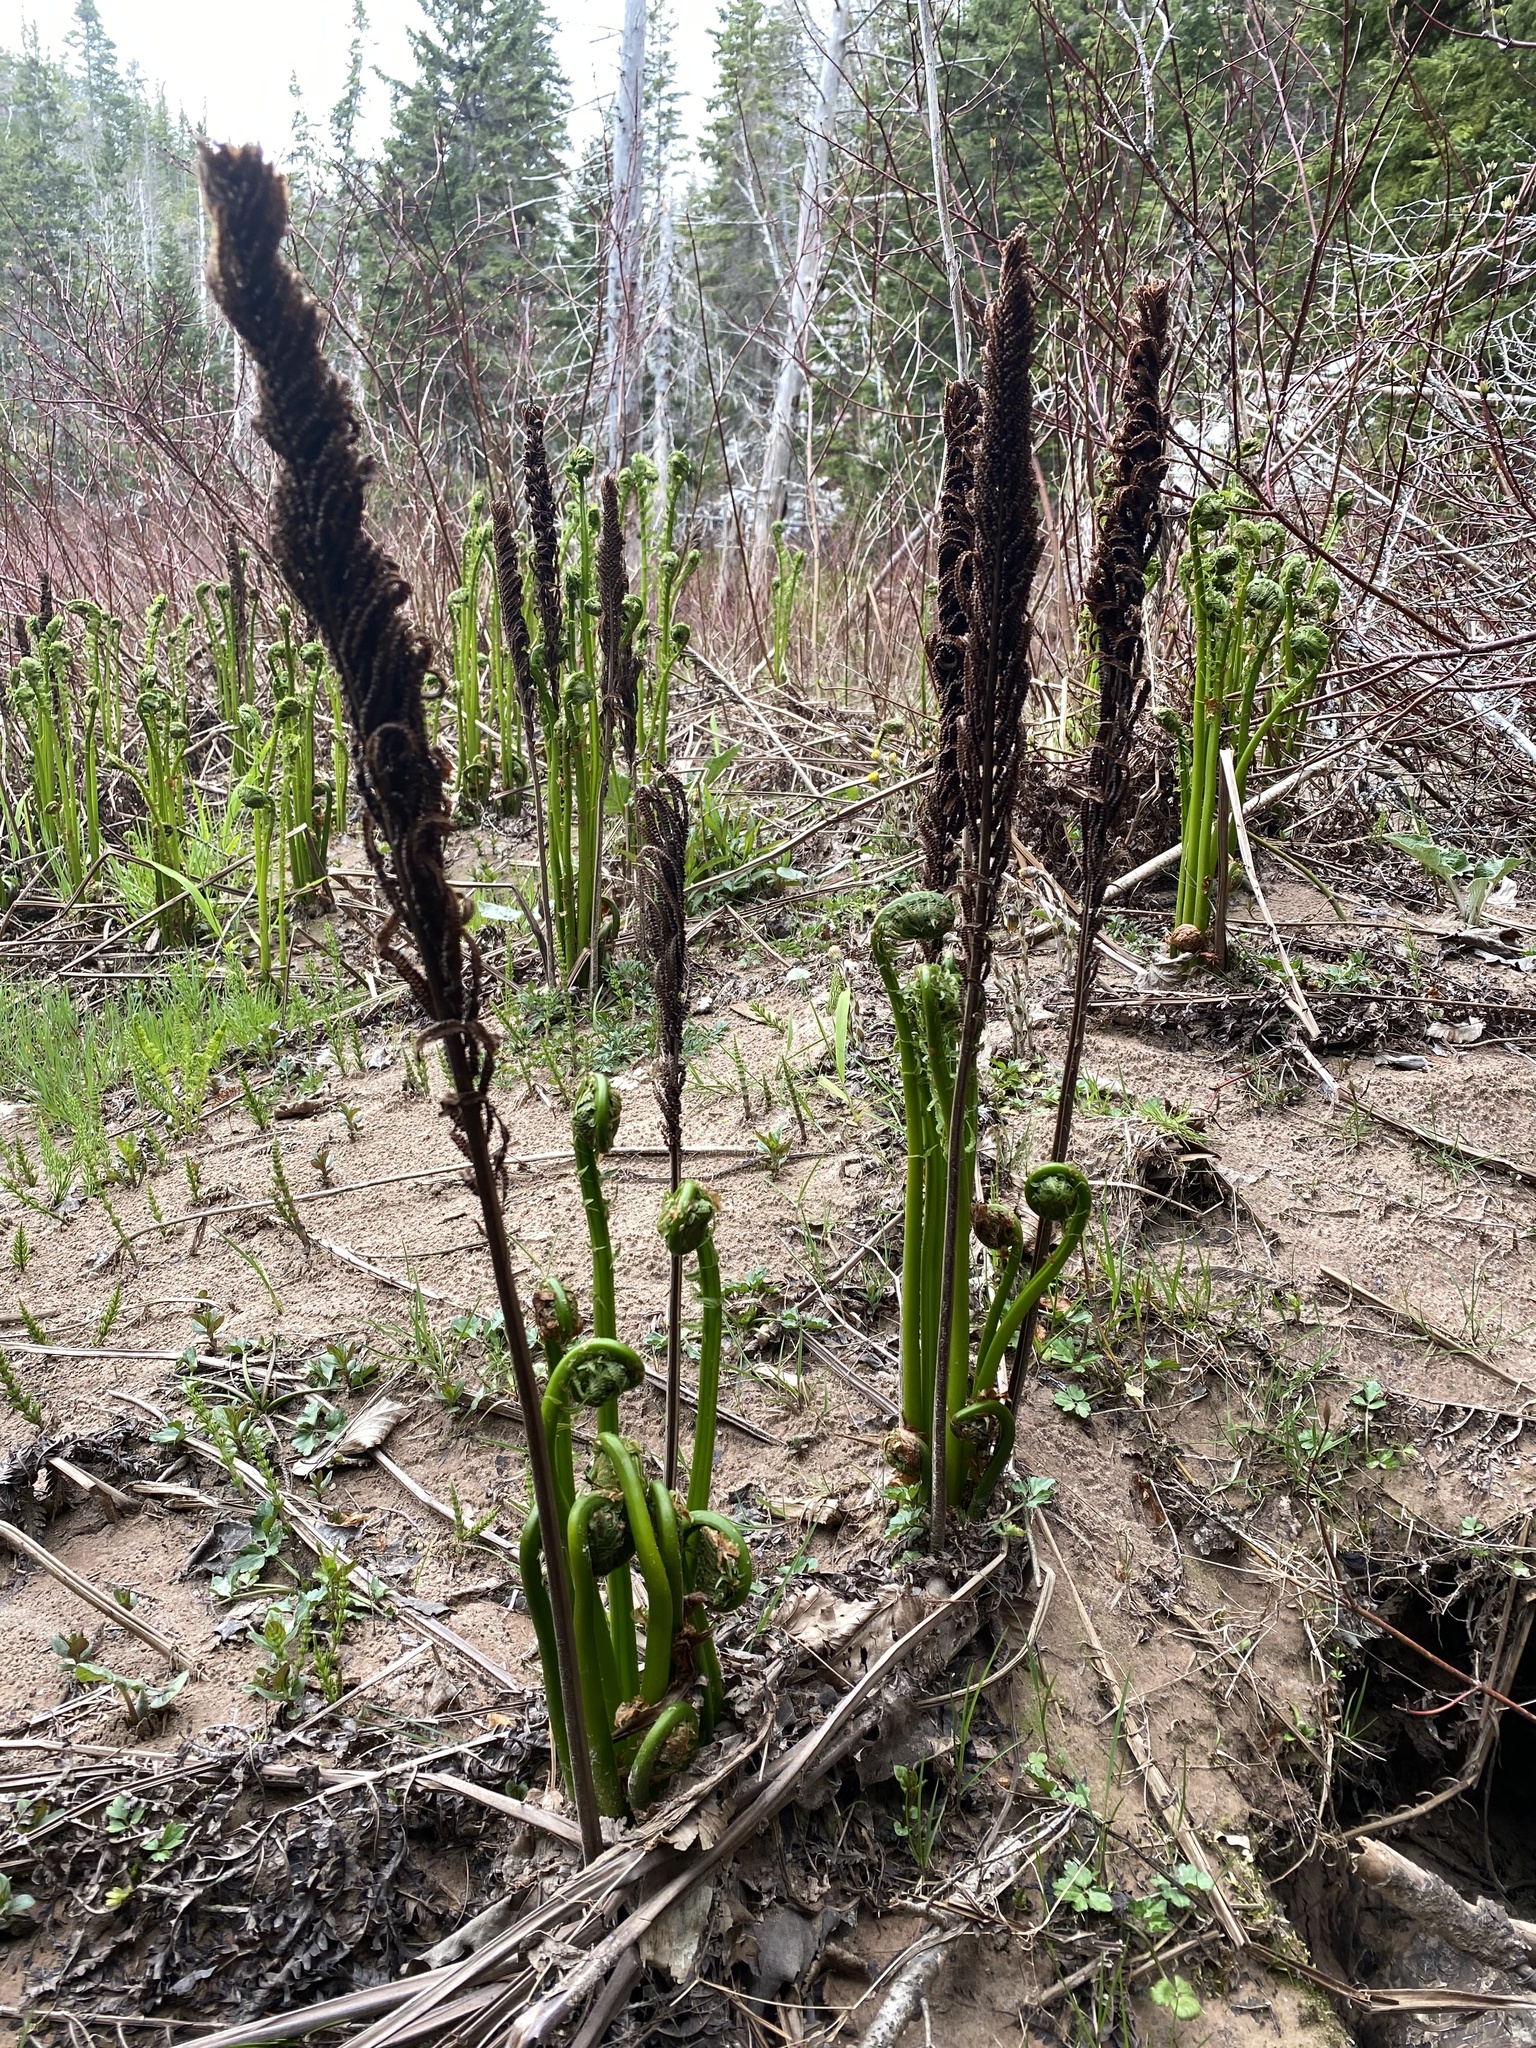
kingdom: Plantae
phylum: Tracheophyta
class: Polypodiopsida
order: Polypodiales
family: Onocleaceae
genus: Matteuccia
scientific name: Matteuccia struthiopteris
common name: Ostrich fern
